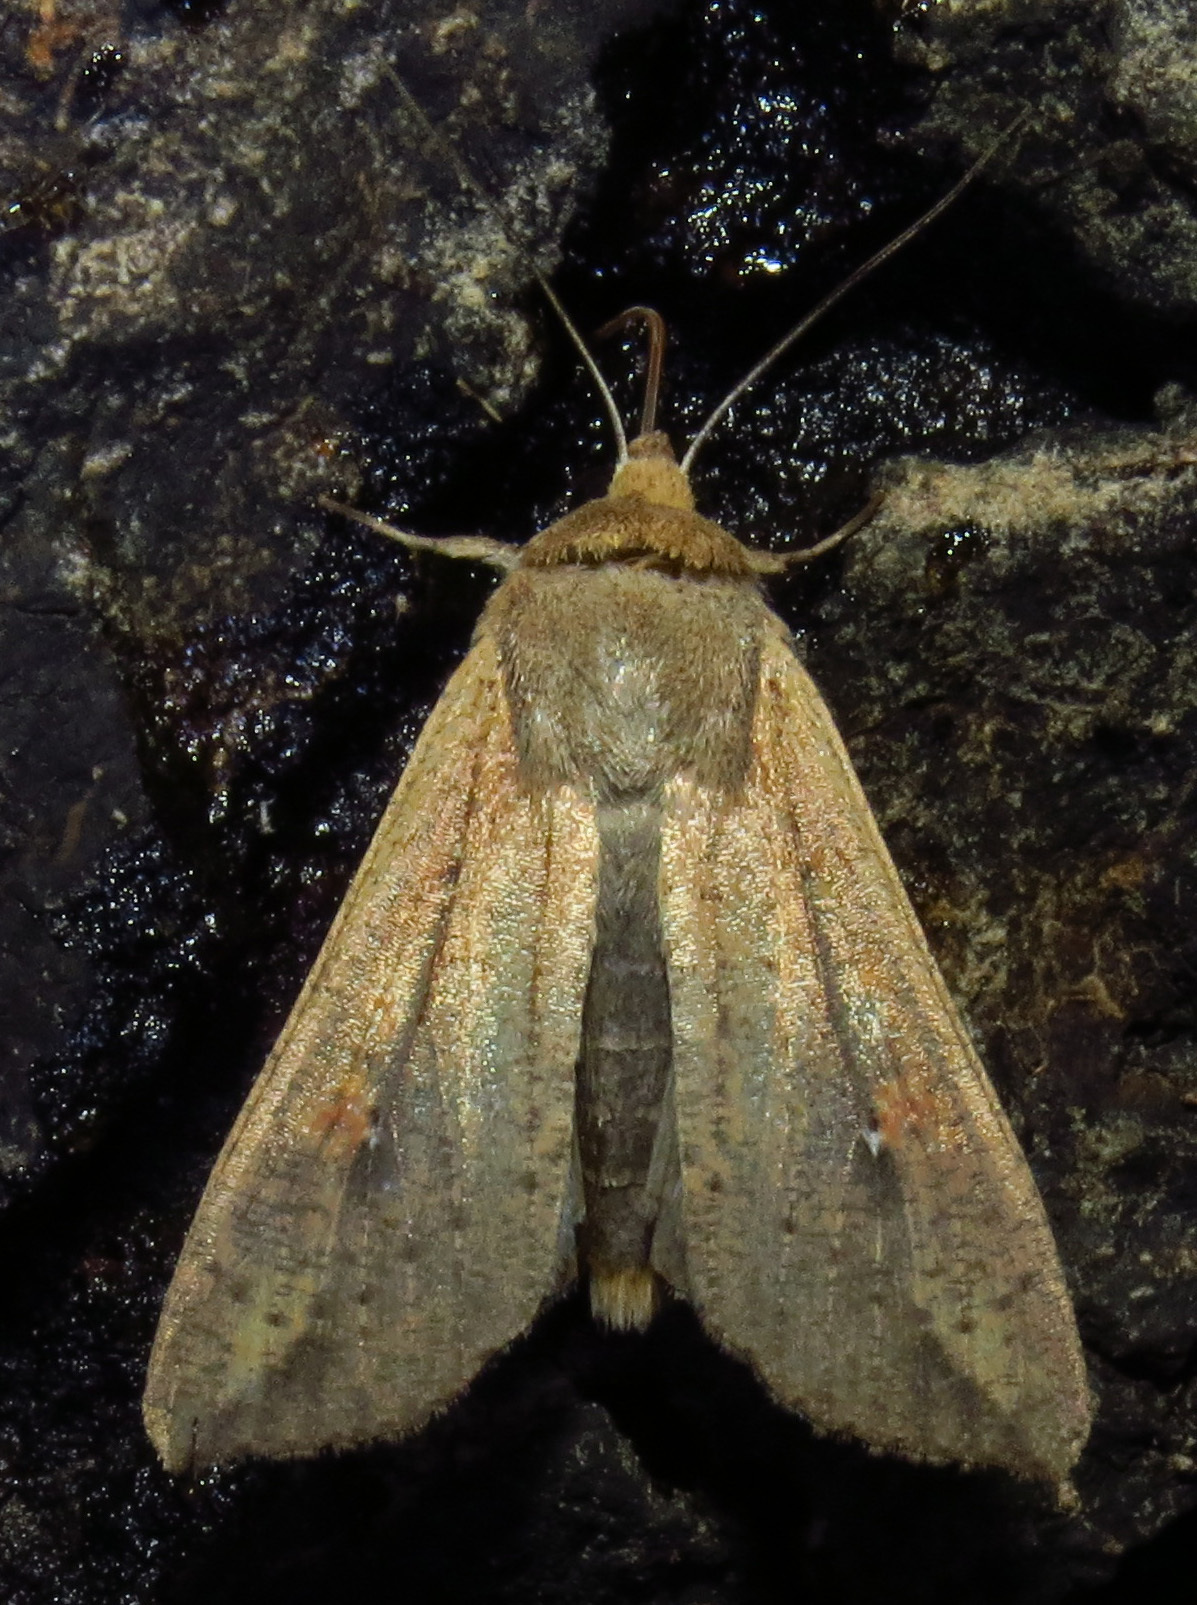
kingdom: Animalia
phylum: Arthropoda
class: Insecta
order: Lepidoptera
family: Noctuidae
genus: Mythimna
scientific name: Mythimna unipuncta
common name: White-speck
